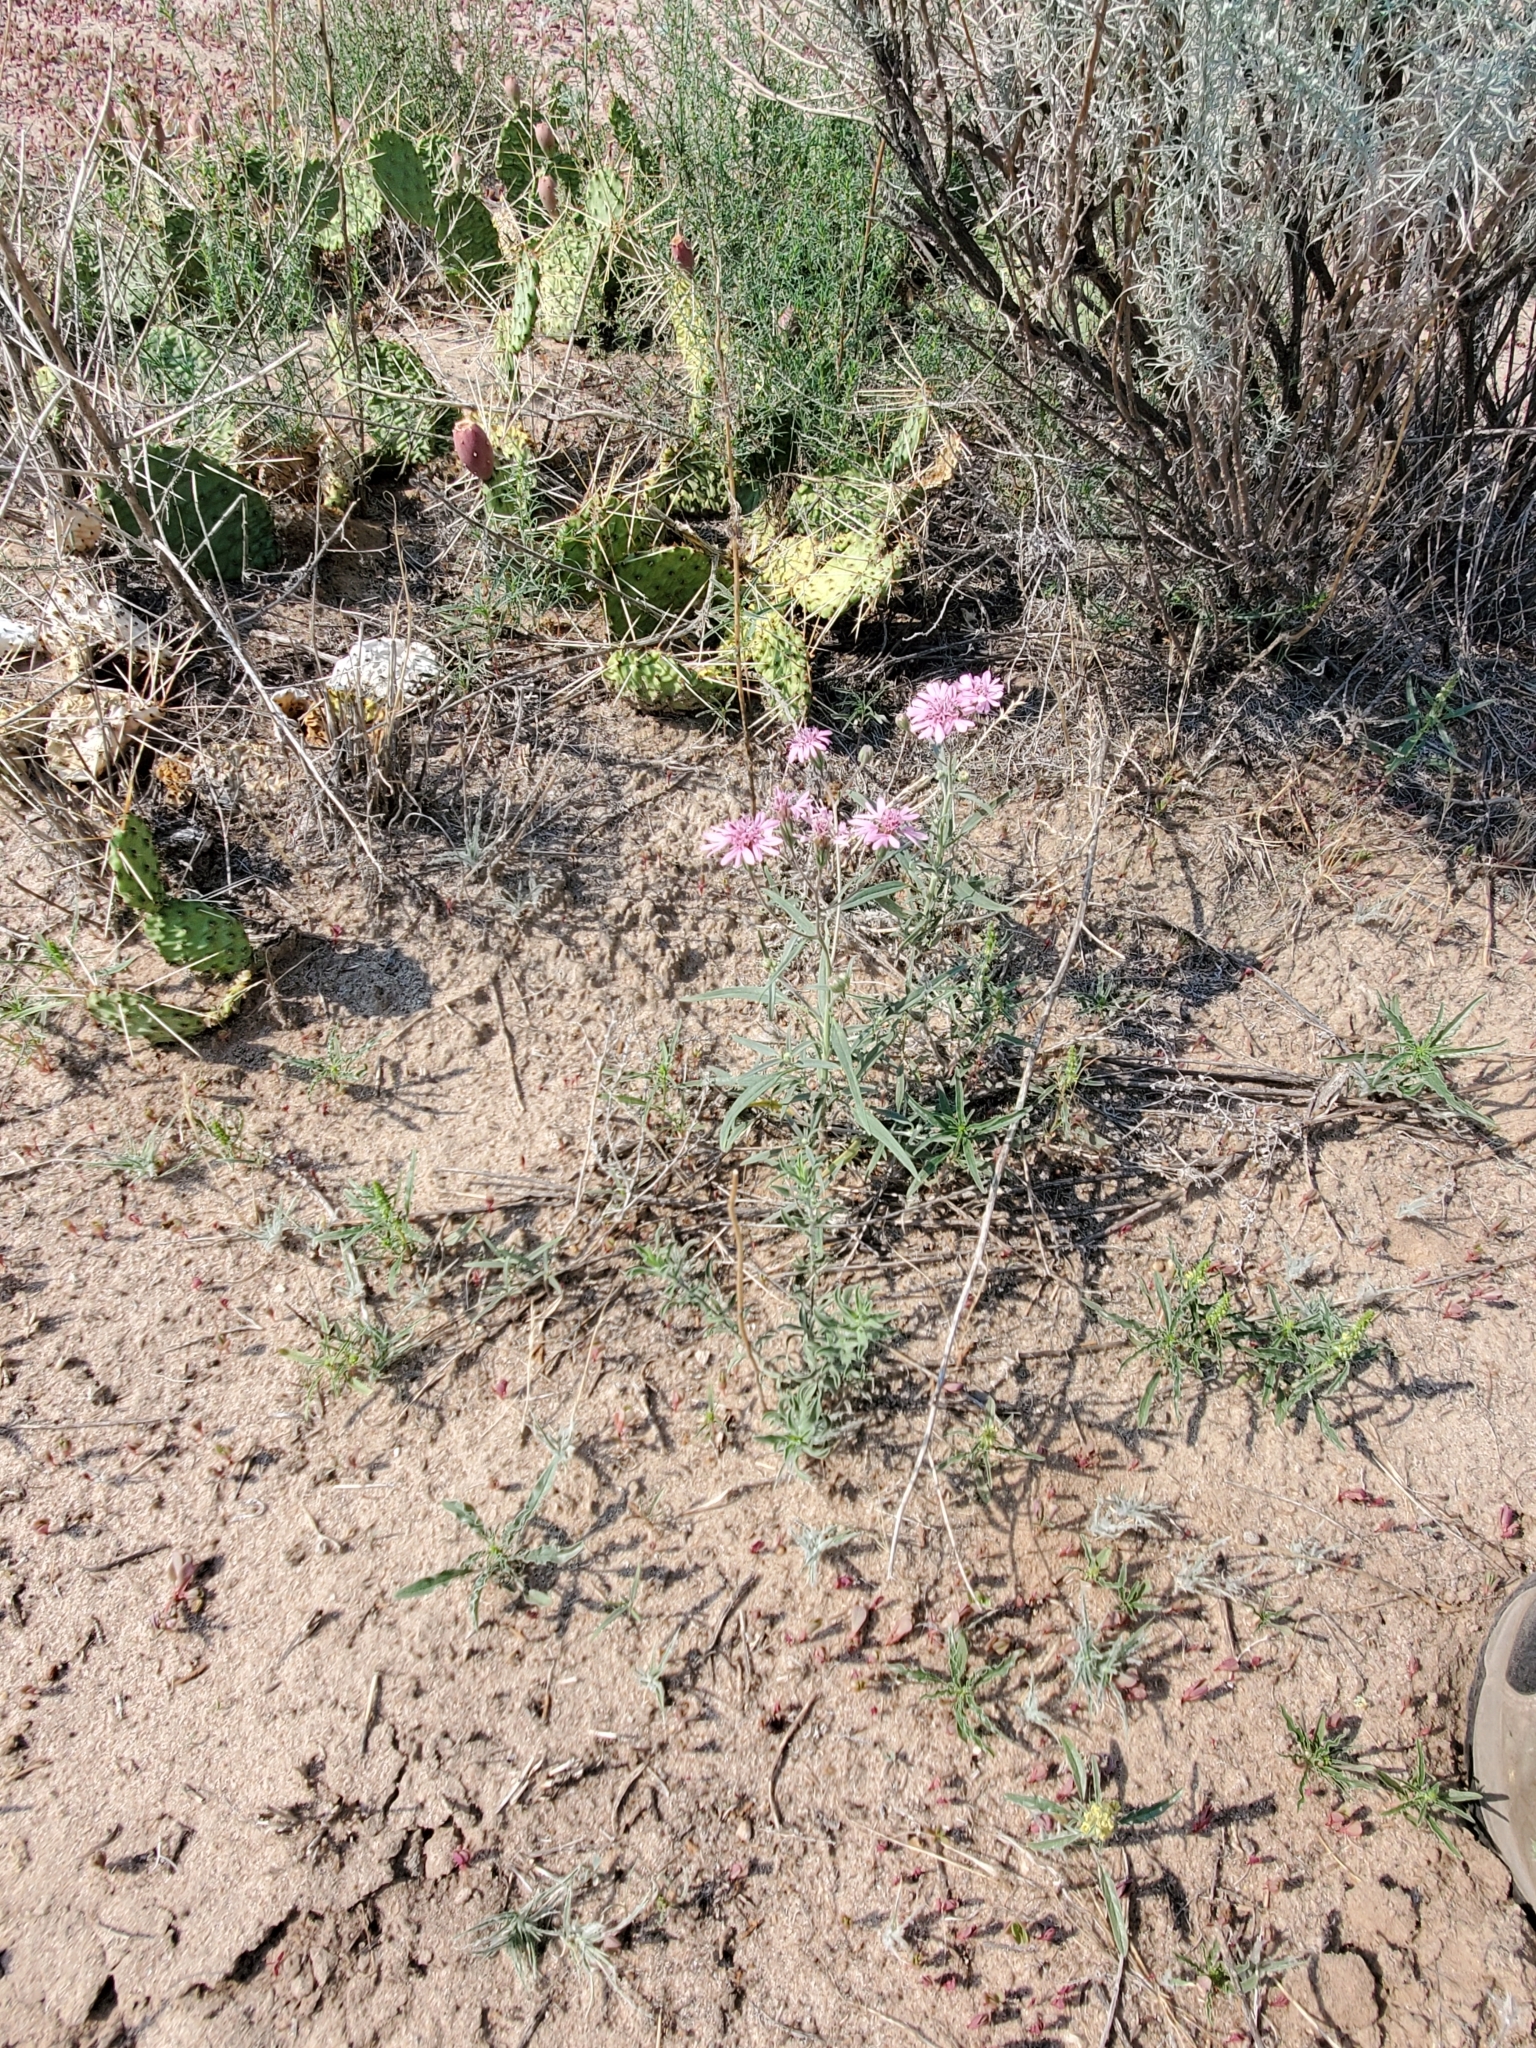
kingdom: Plantae
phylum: Tracheophyta
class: Magnoliopsida
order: Asterales
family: Asteraceae
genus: Palafoxia
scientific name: Palafoxia sphacelata
